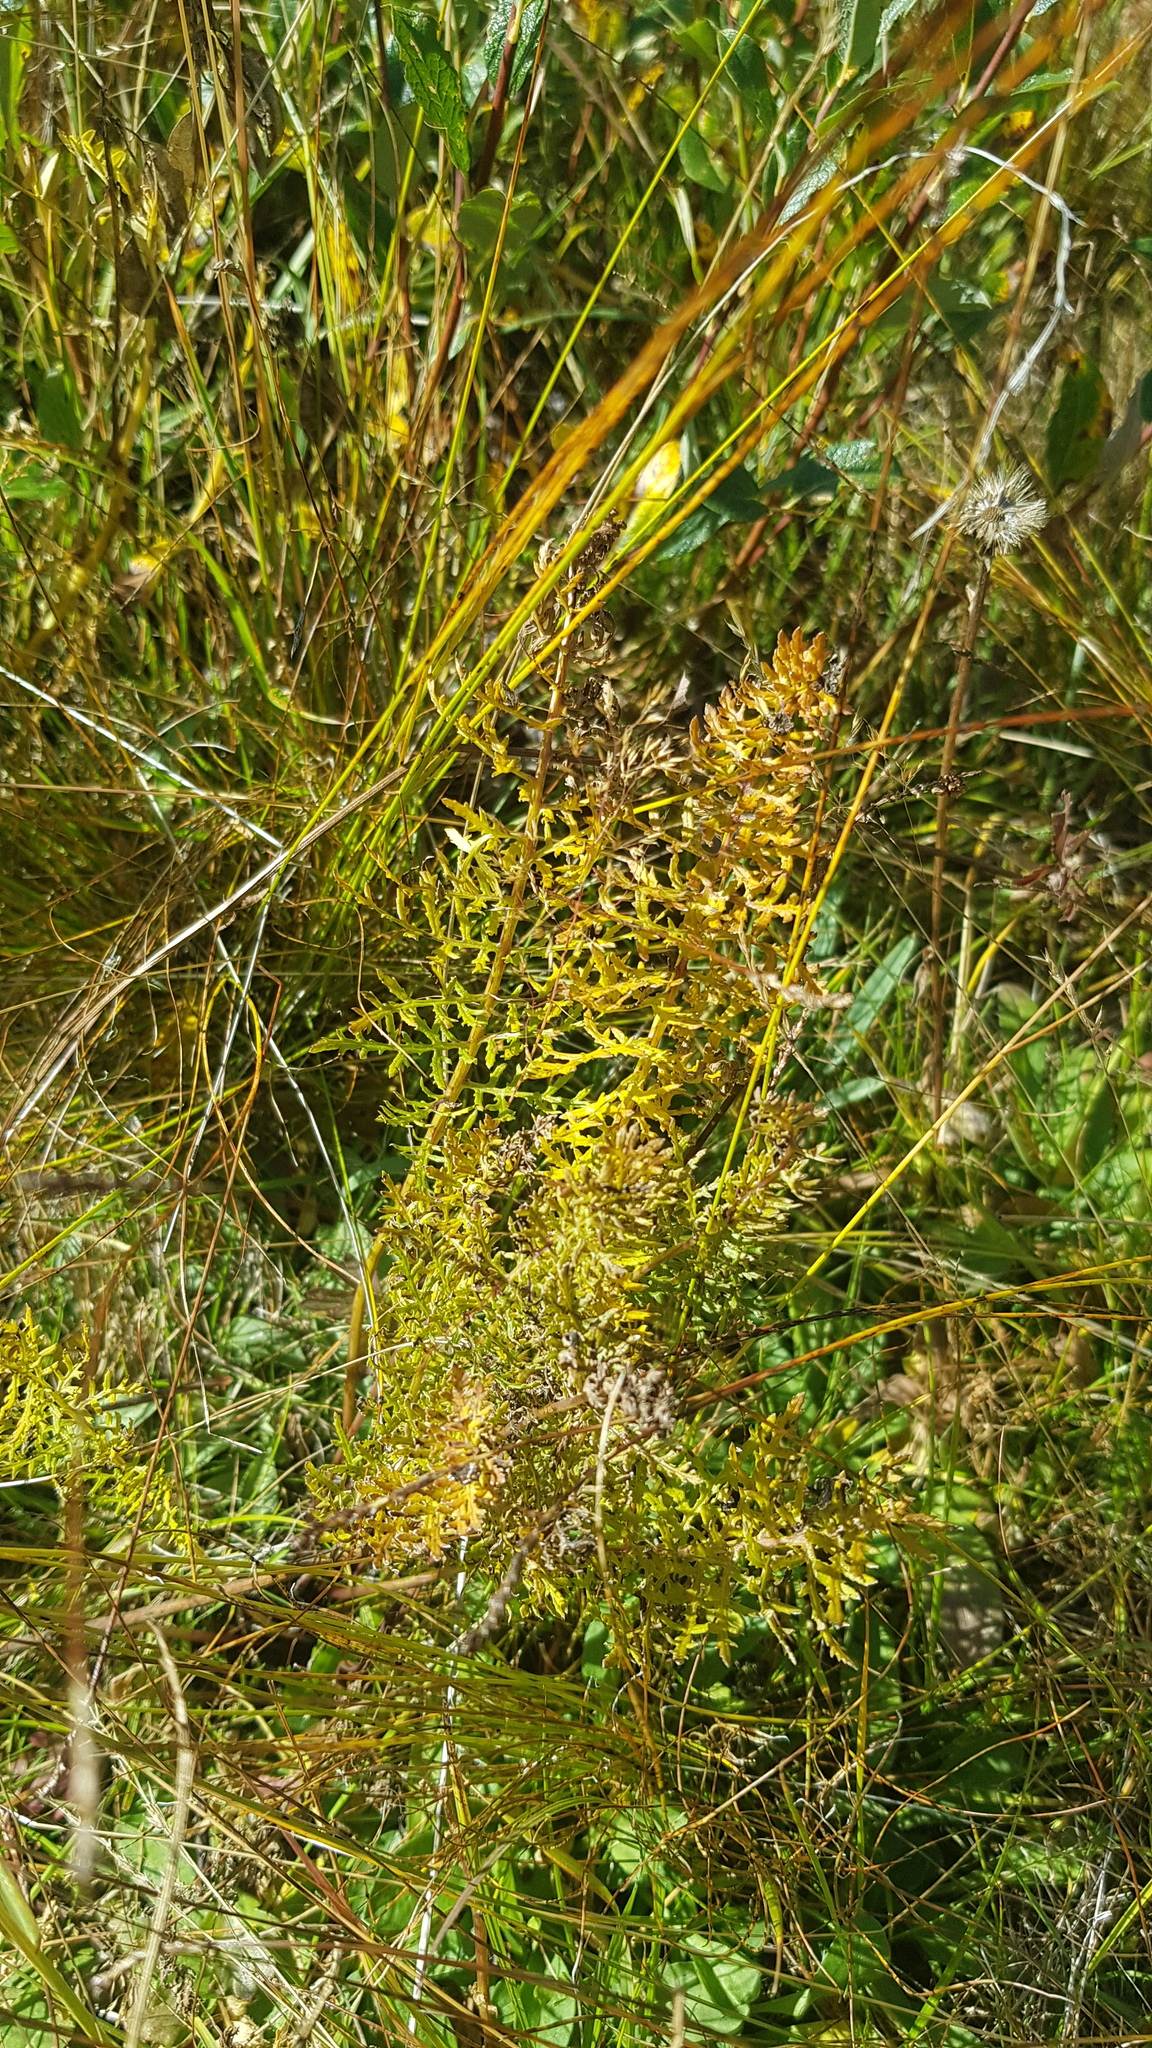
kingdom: Plantae
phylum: Tracheophyta
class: Magnoliopsida
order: Lamiales
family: Orobanchaceae
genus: Pedicularis
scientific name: Pedicularis rubens
